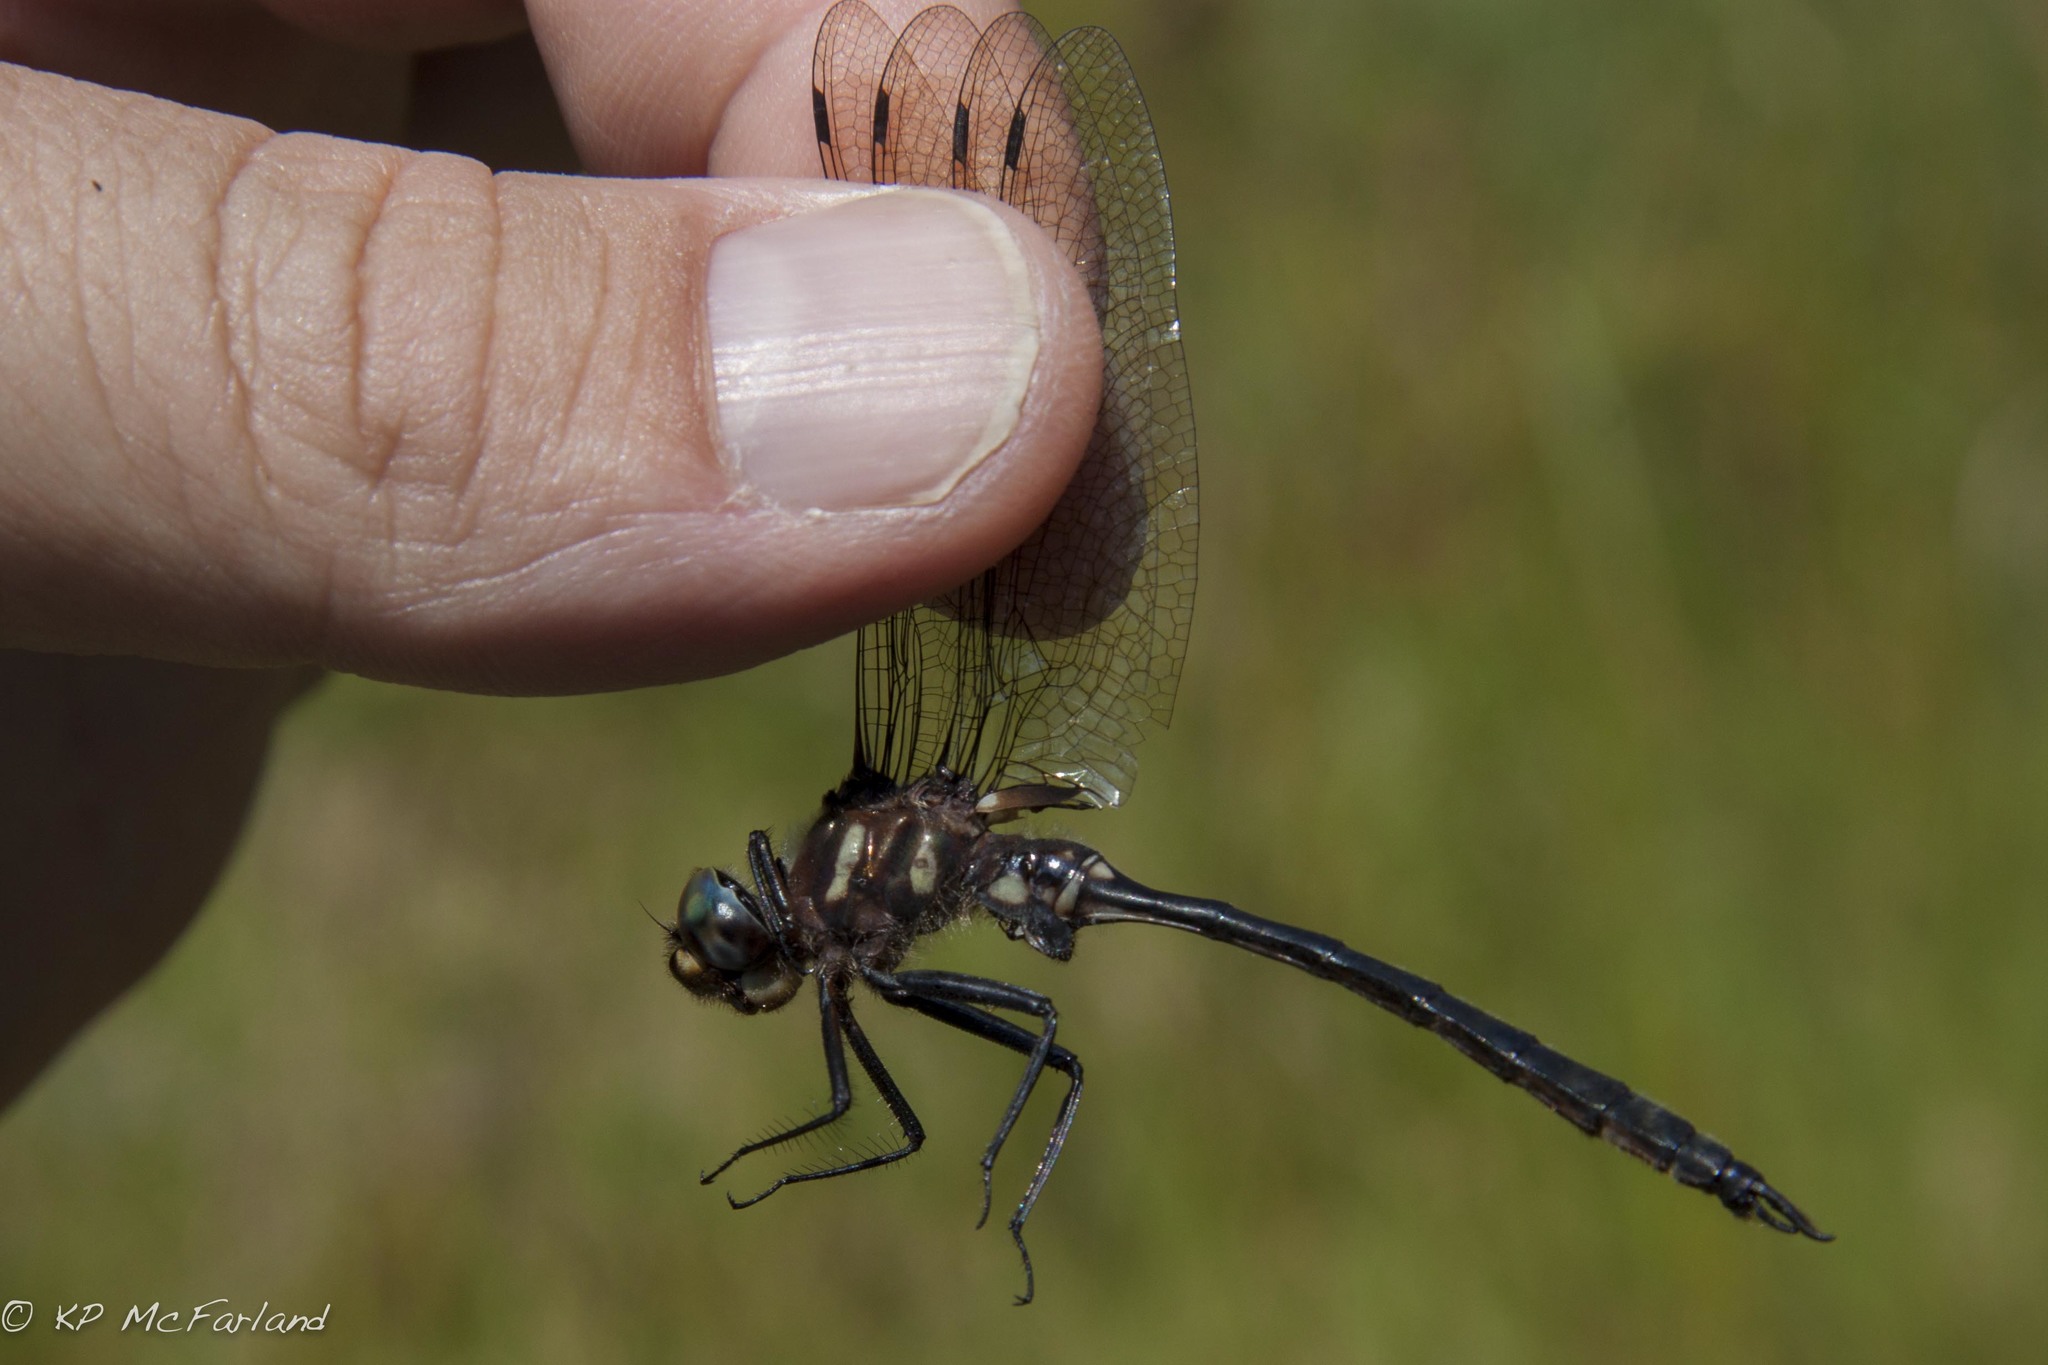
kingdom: Animalia
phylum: Arthropoda
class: Insecta
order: Odonata
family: Corduliidae
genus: Somatochlora
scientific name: Somatochlora elongata
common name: Ski-tipped emerald
